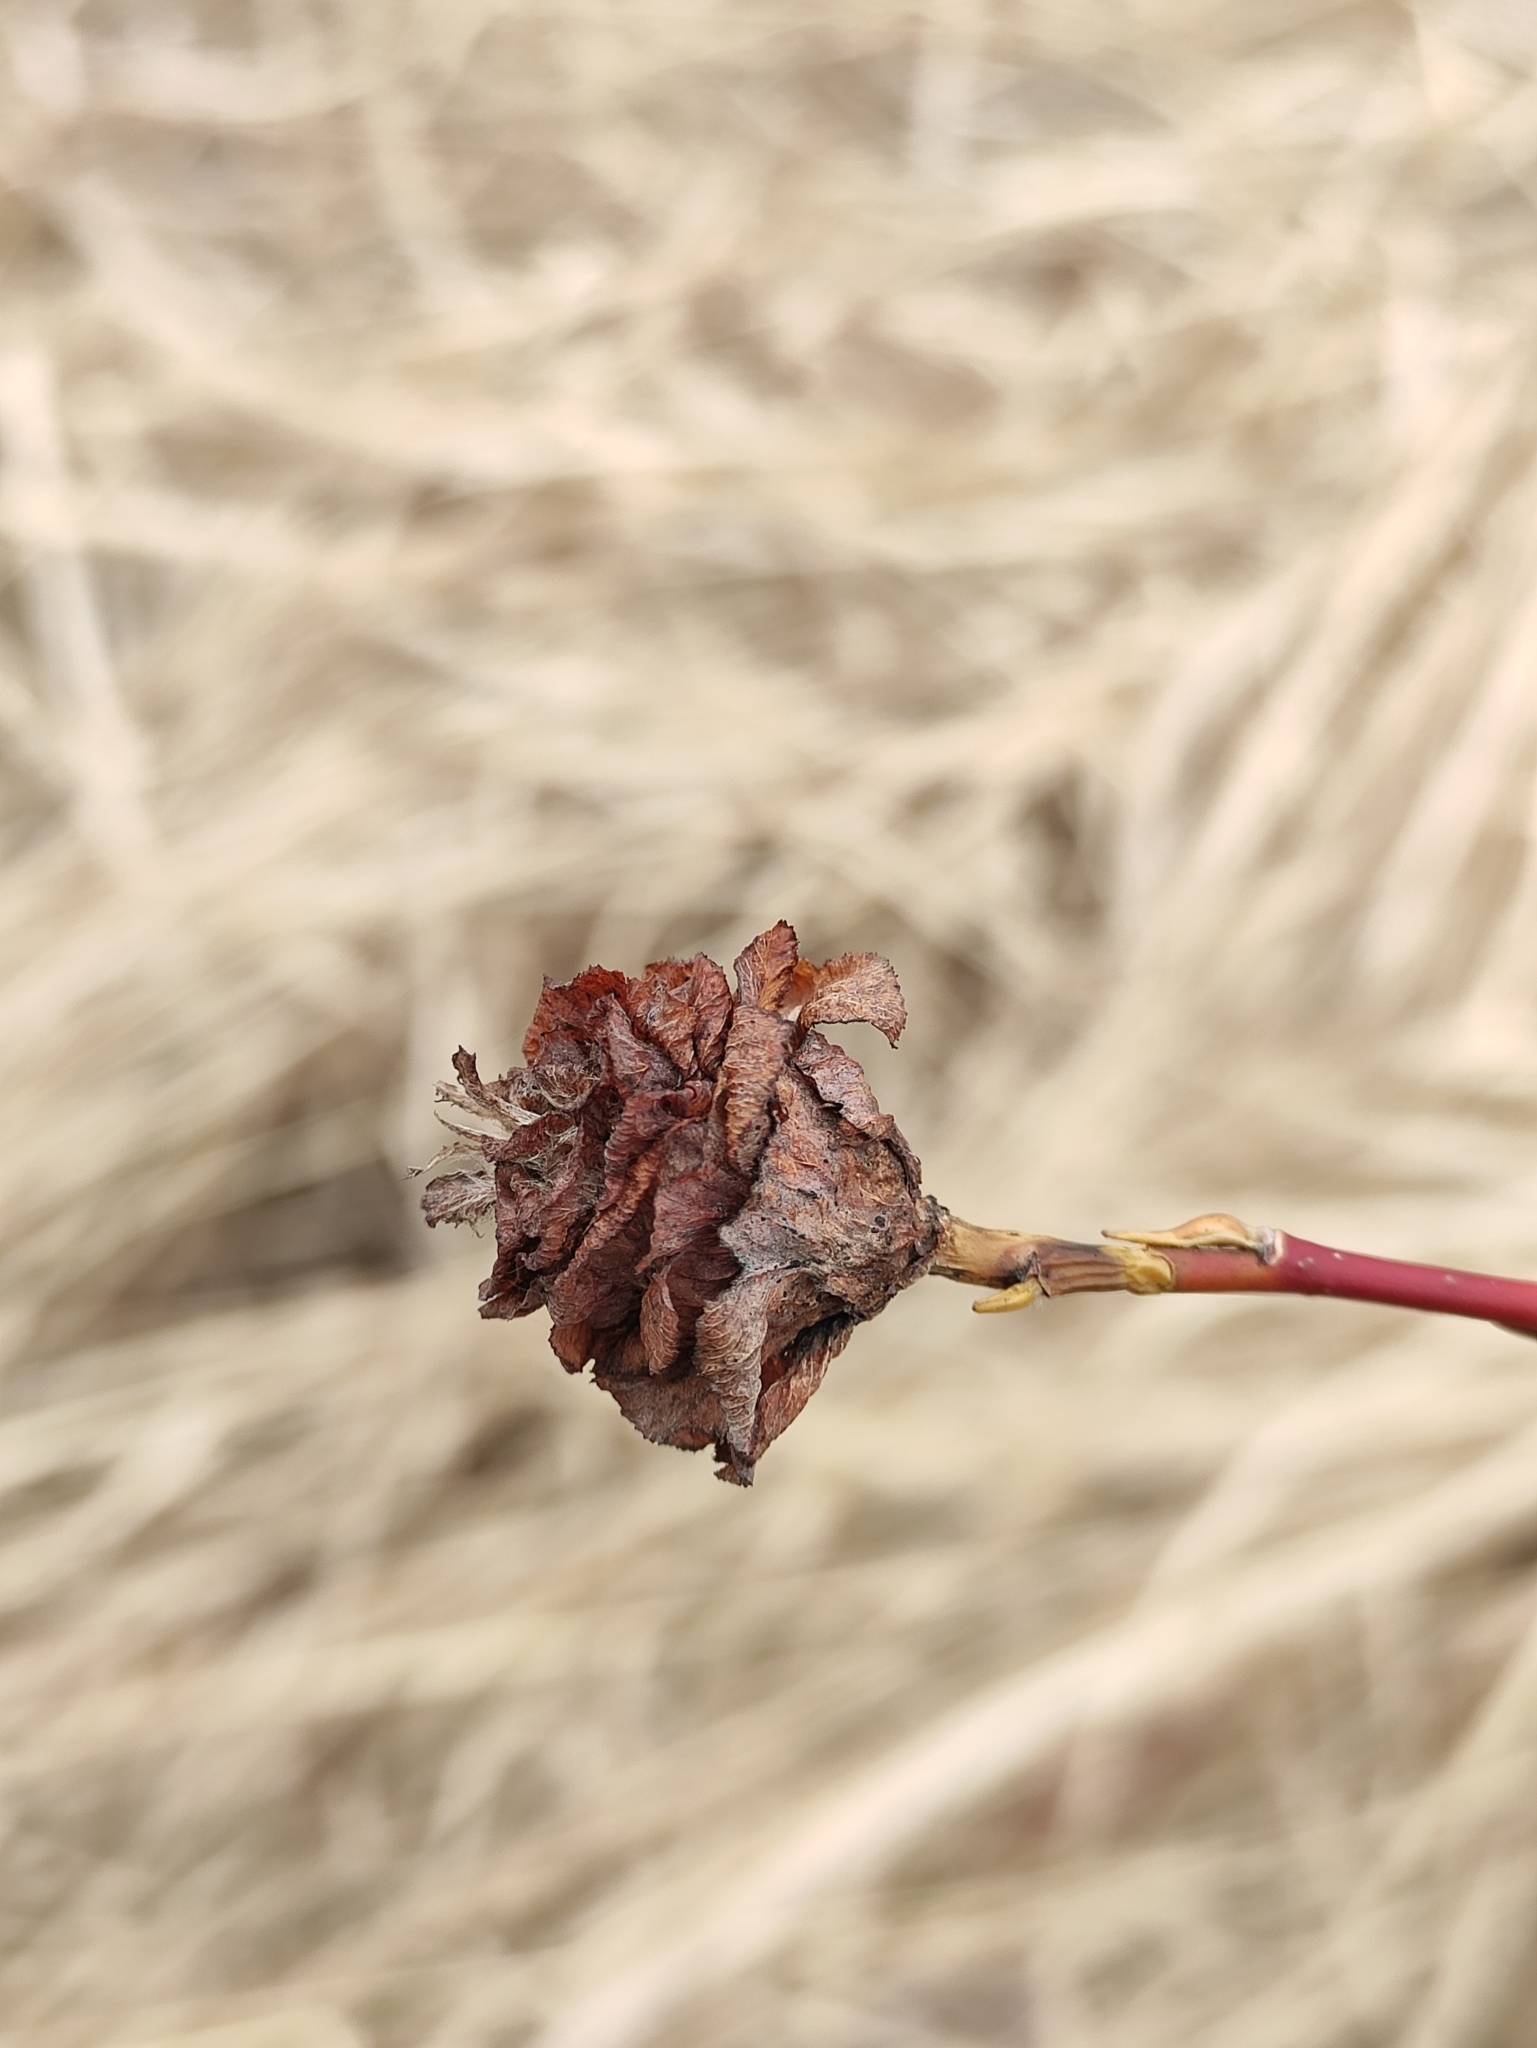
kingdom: Animalia
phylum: Arthropoda
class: Insecta
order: Diptera
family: Cecidomyiidae
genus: Rabdophaga
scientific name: Rabdophaga rosaria
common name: Willow rose gall midge
